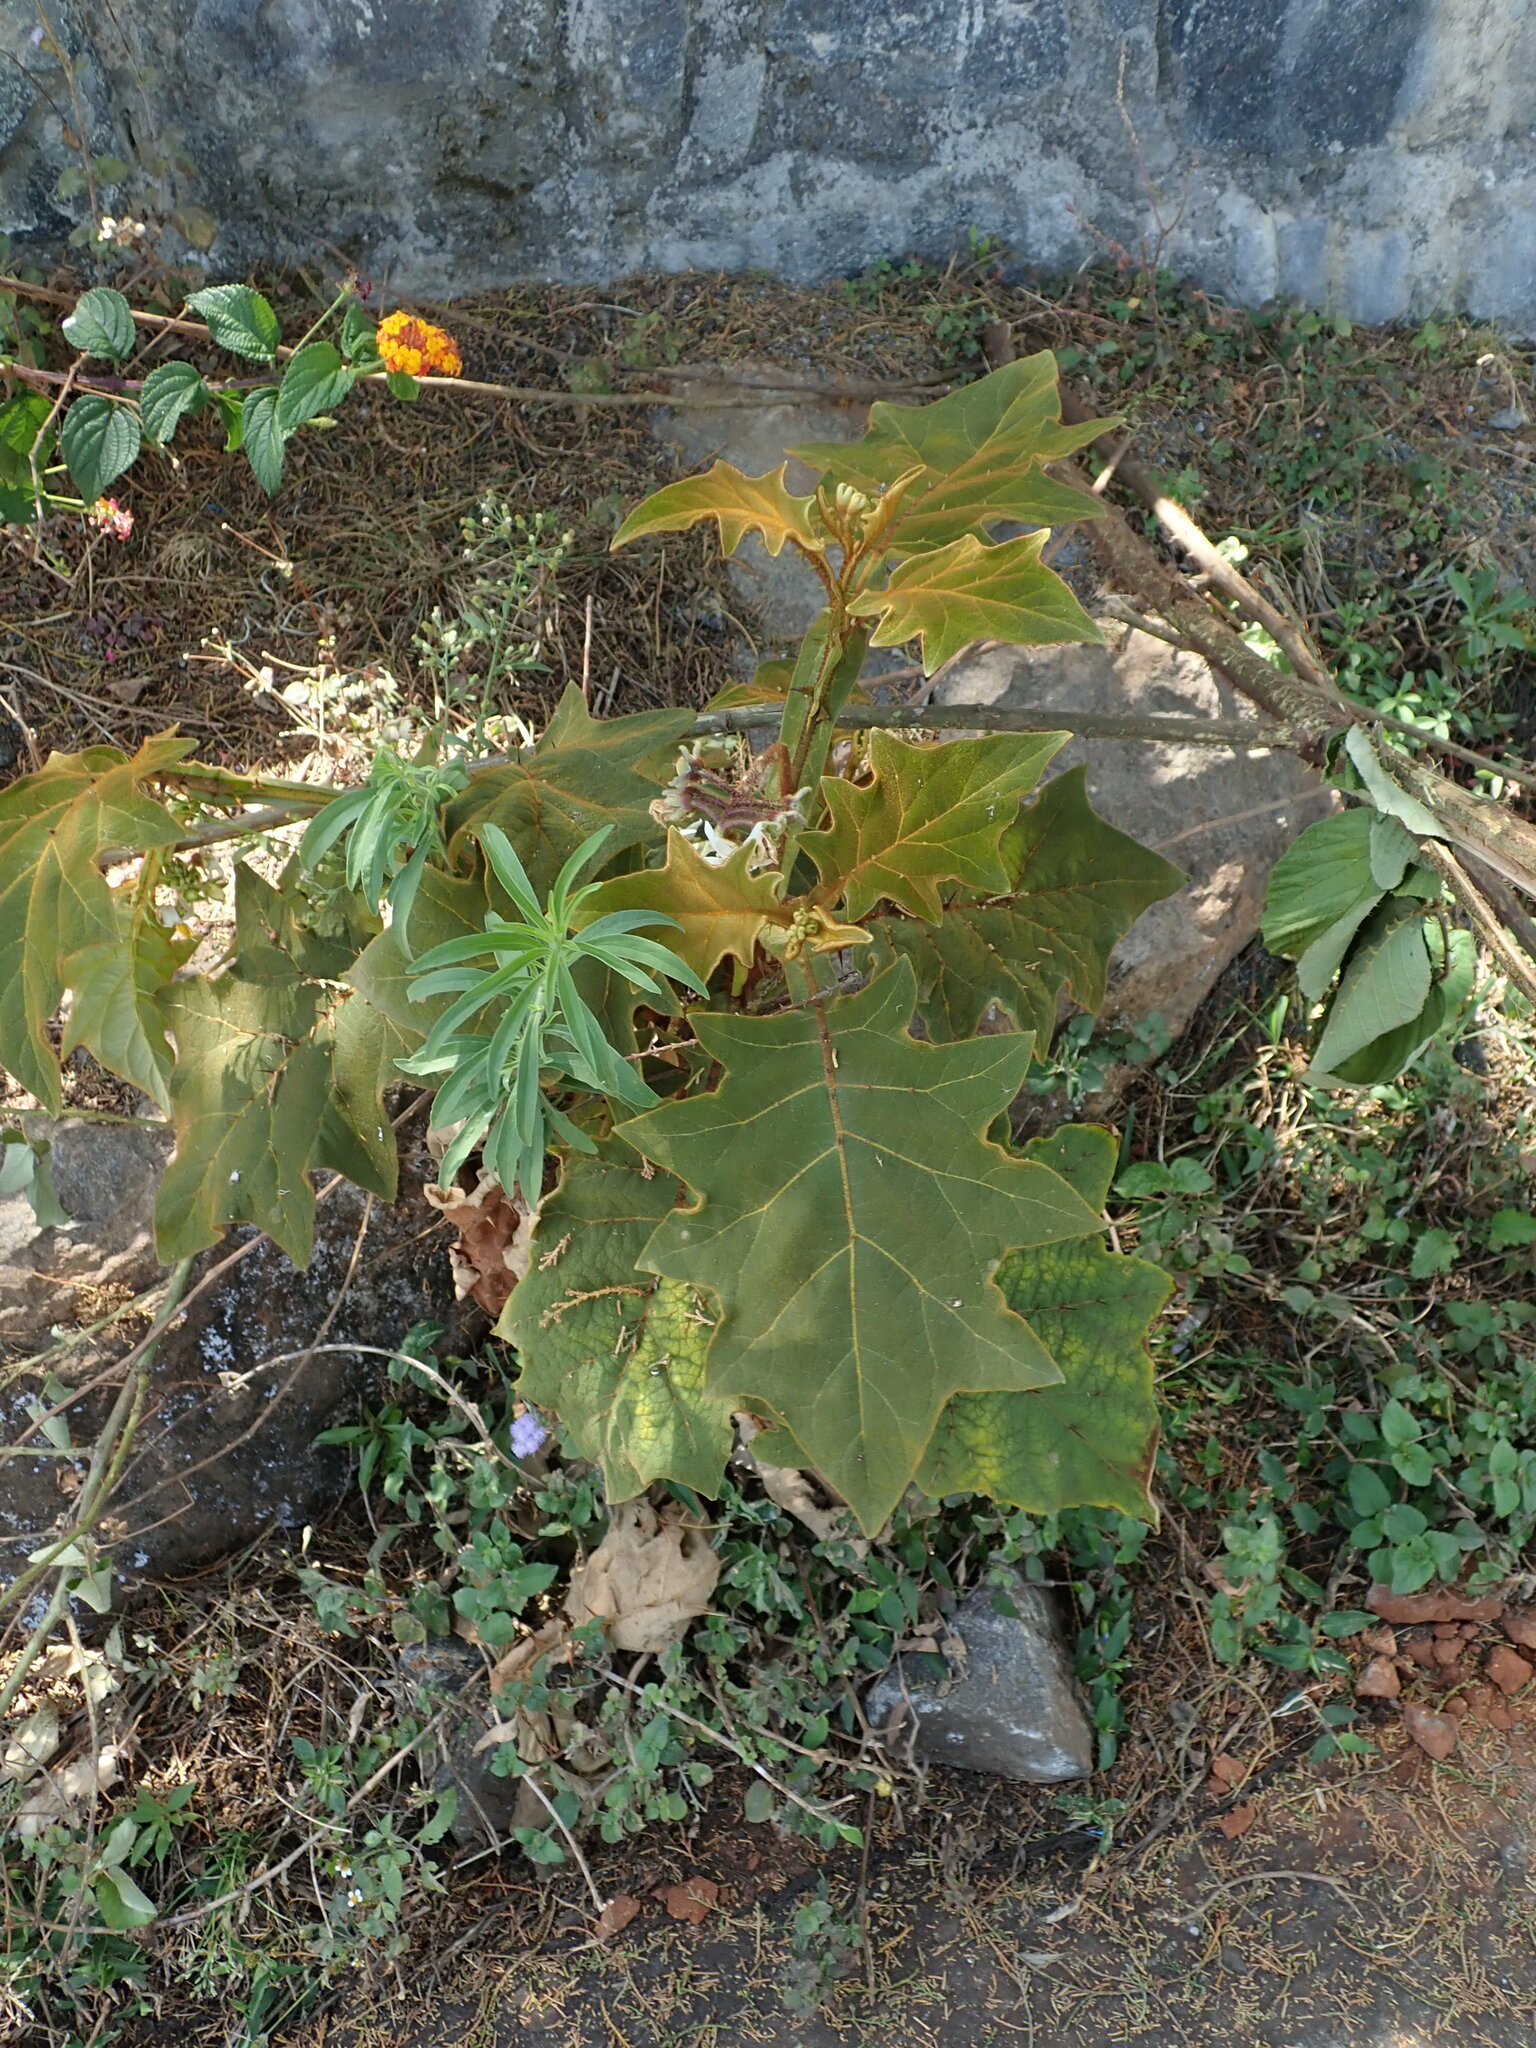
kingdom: Plantae
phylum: Tracheophyta
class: Magnoliopsida
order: Solanales
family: Solanaceae
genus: Solanum
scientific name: Solanum robustum
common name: Shrubby nightshade
